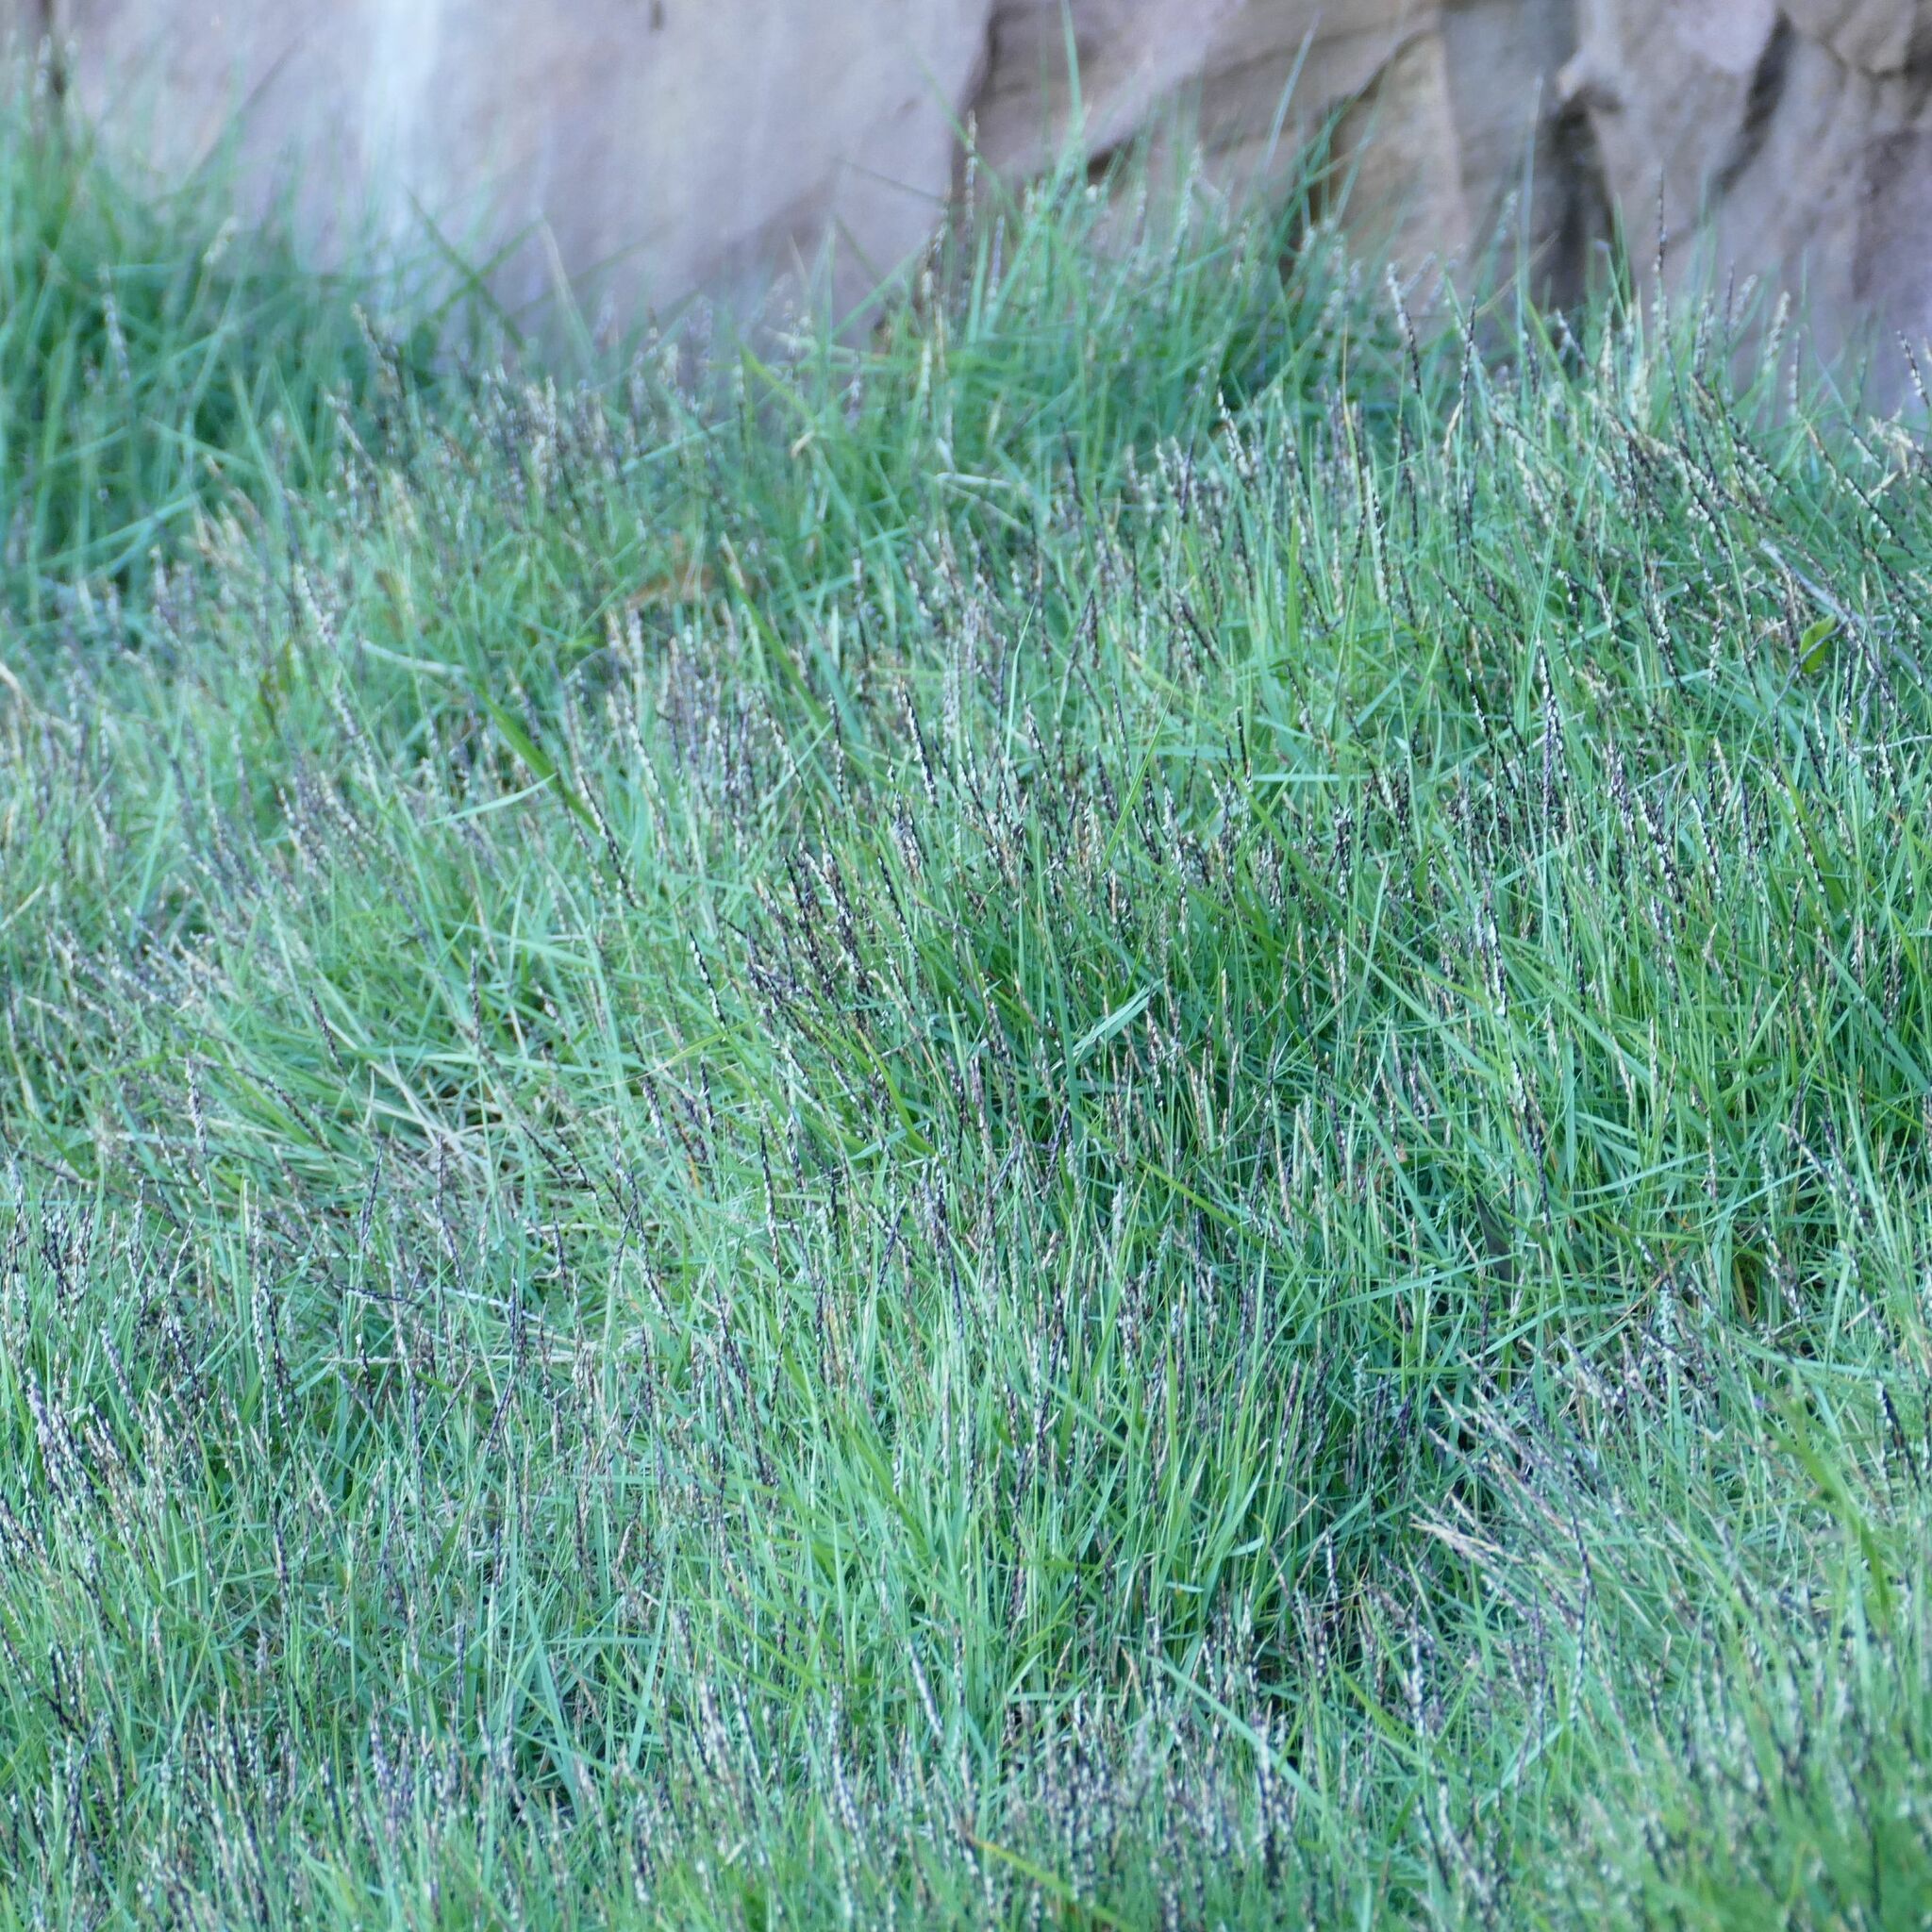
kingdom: Plantae
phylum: Tracheophyta
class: Liliopsida
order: Poales
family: Poaceae
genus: Sporobolus
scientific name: Sporobolus virginicus
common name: Beach dropseed
